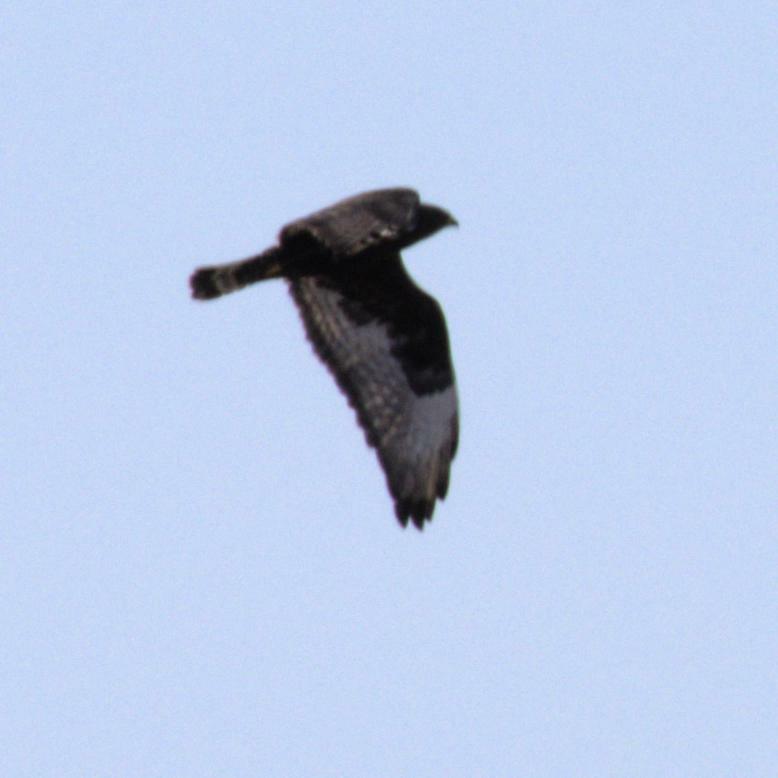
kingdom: Animalia
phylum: Chordata
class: Aves
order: Accipitriformes
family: Accipitridae
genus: Buteo
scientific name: Buteo lagopus
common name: Rough-legged buzzard
